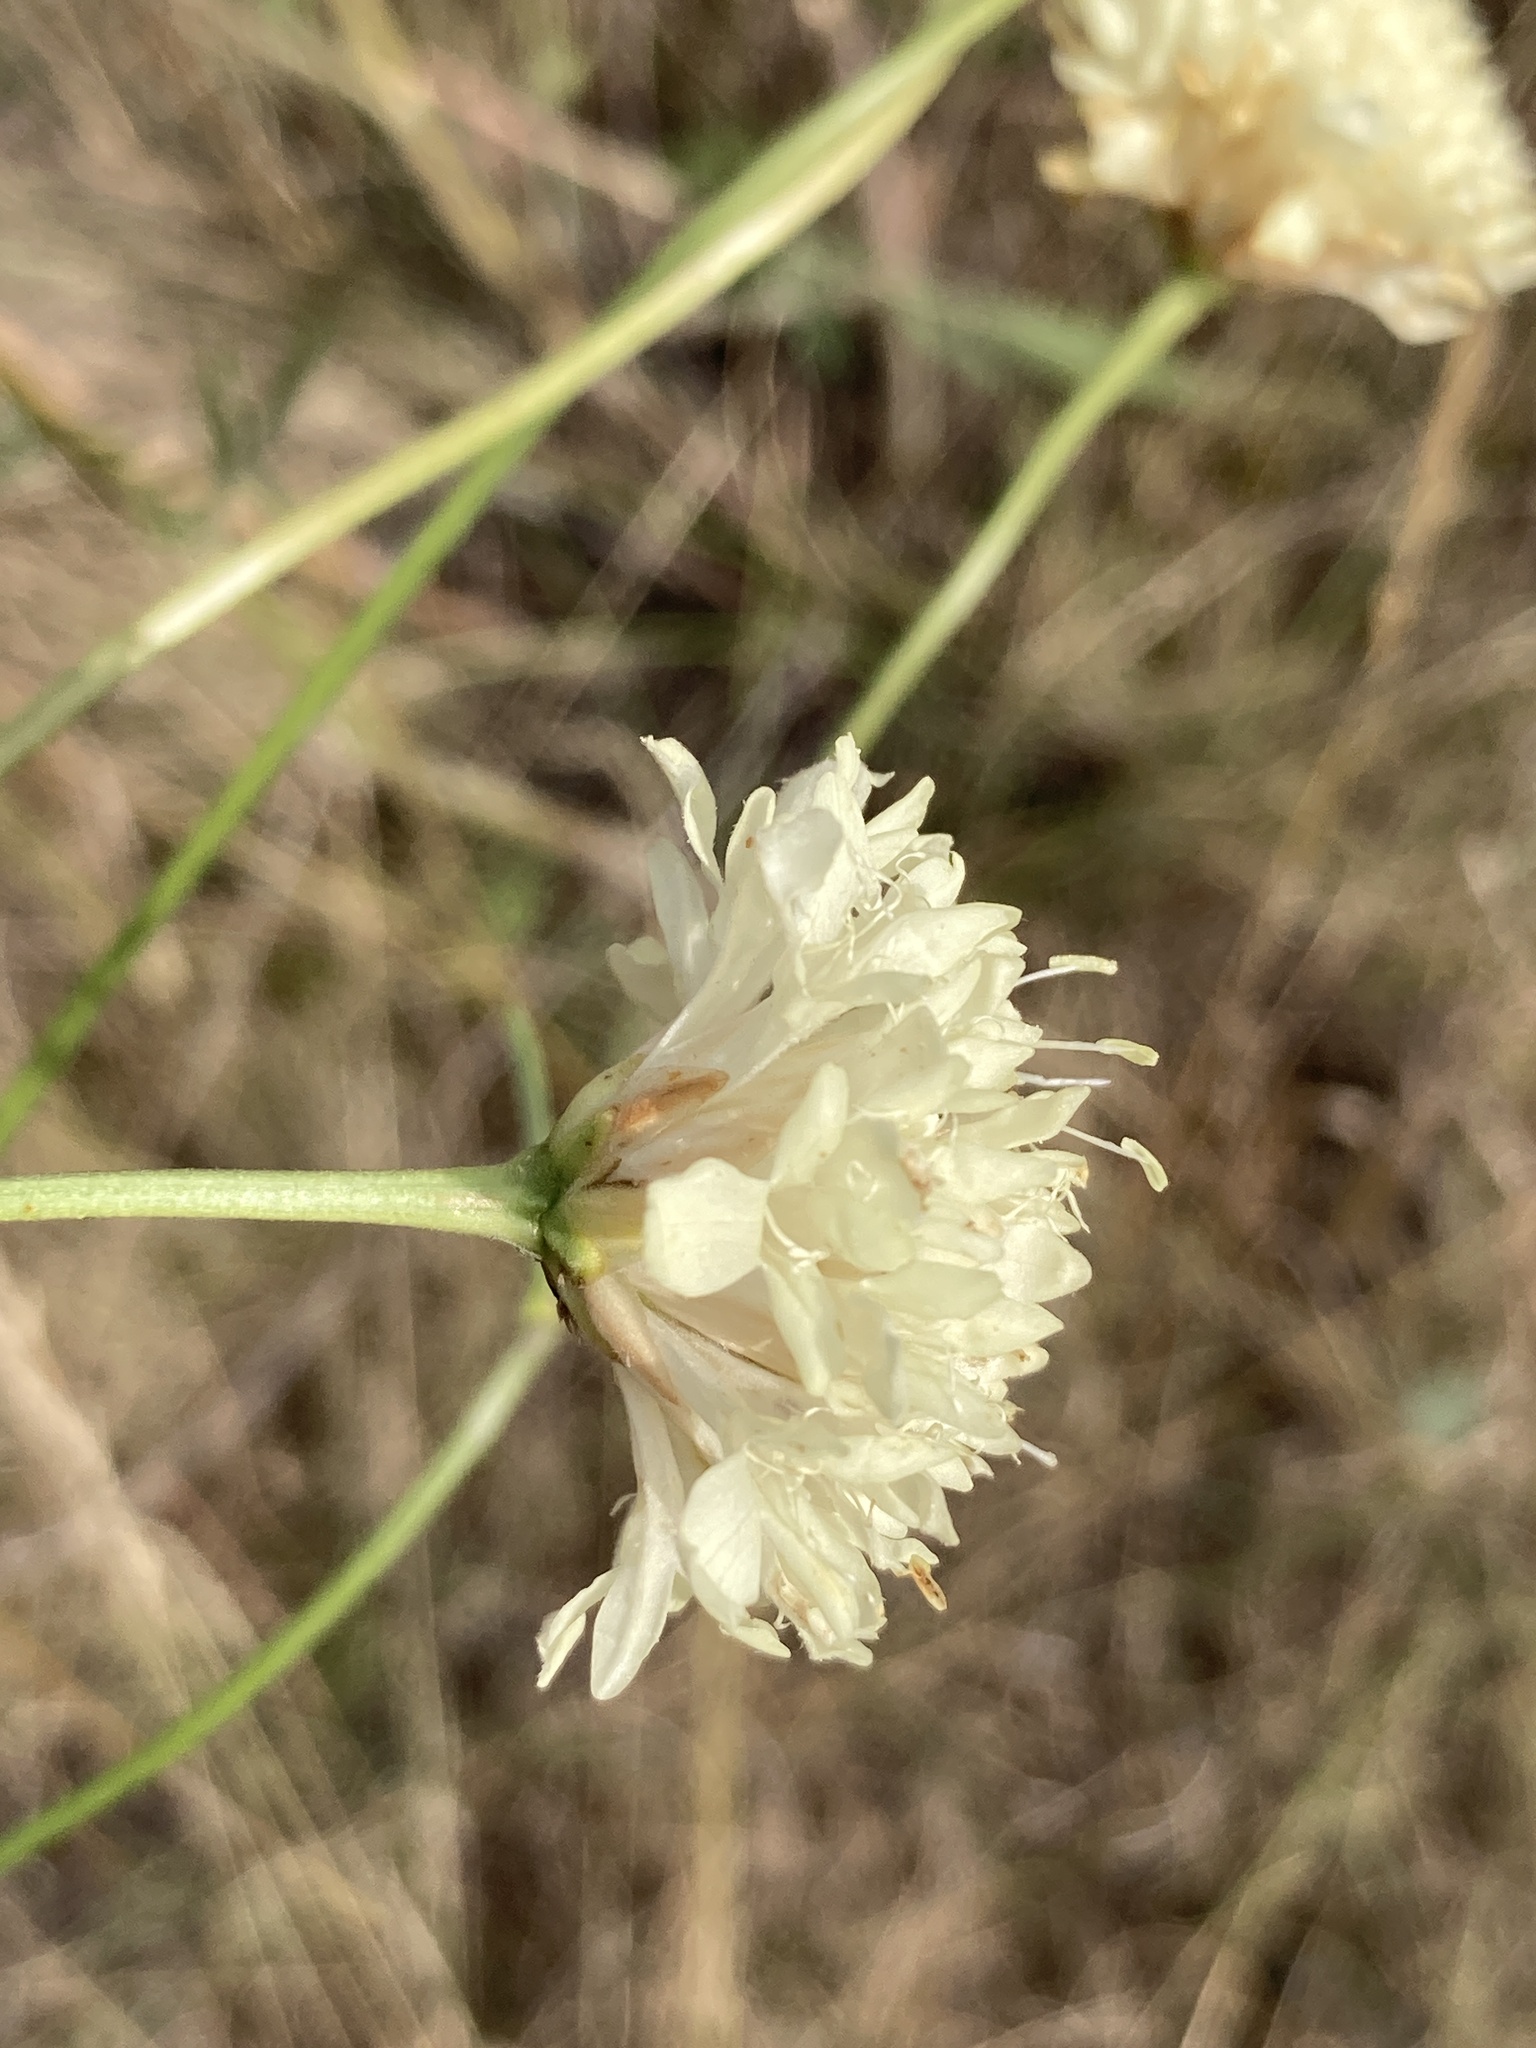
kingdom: Plantae
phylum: Tracheophyta
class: Magnoliopsida
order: Dipsacales
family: Caprifoliaceae
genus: Cephalaria
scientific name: Cephalaria uralensis
